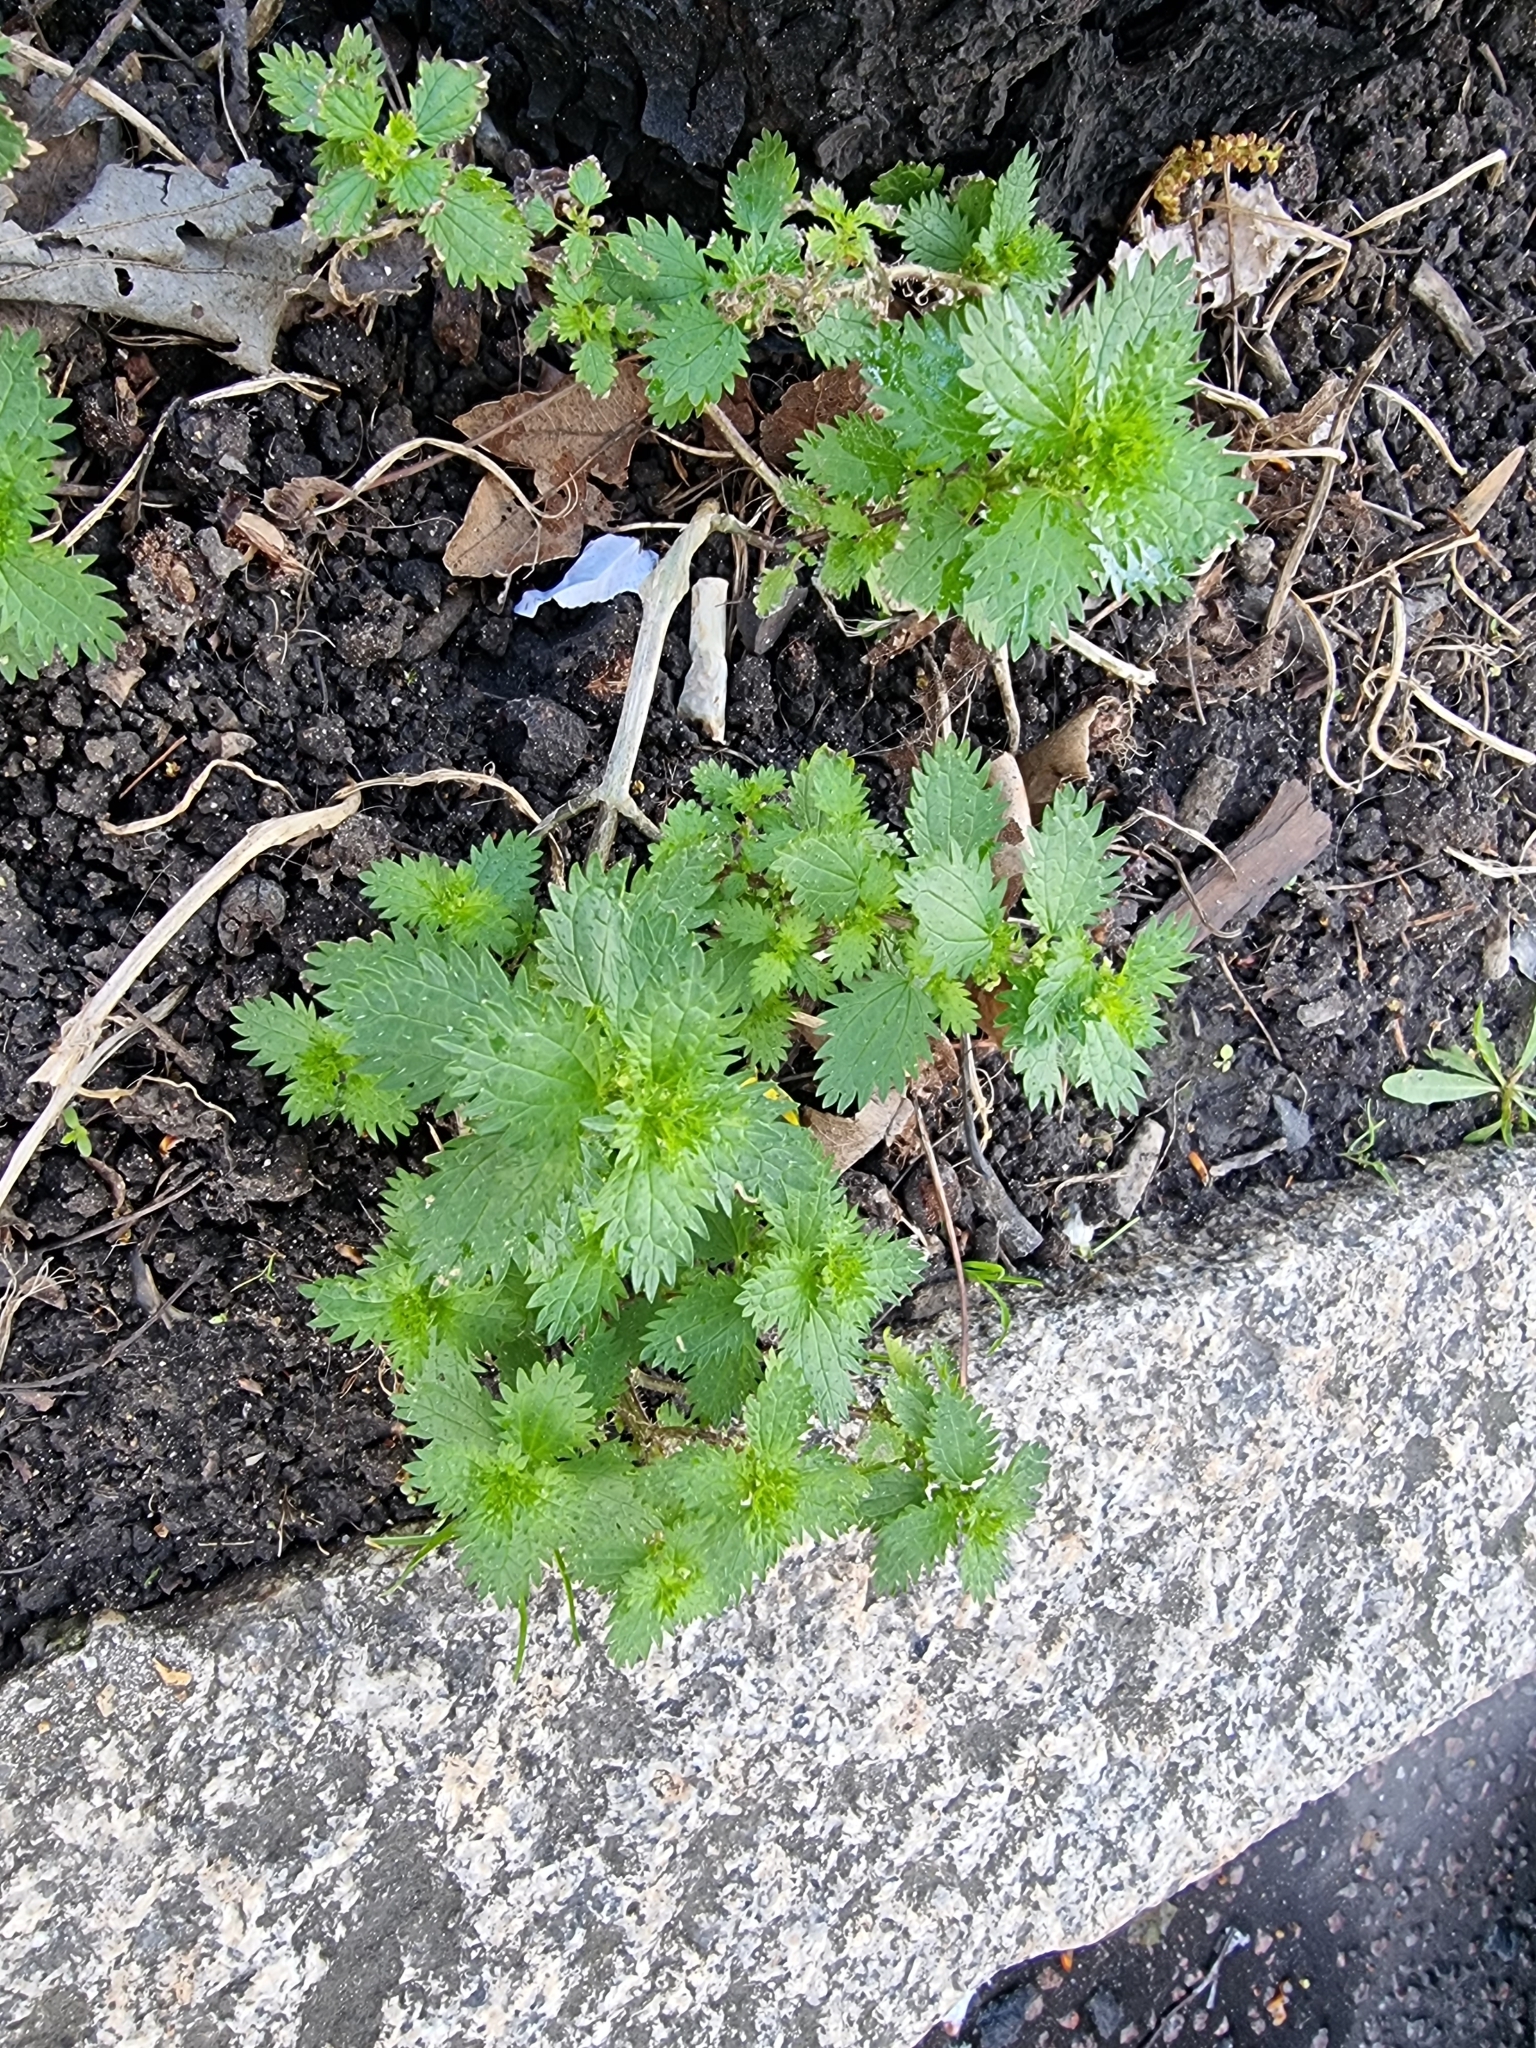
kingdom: Plantae
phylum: Tracheophyta
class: Magnoliopsida
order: Rosales
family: Urticaceae
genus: Urtica
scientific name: Urtica urens
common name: Dwarf nettle
